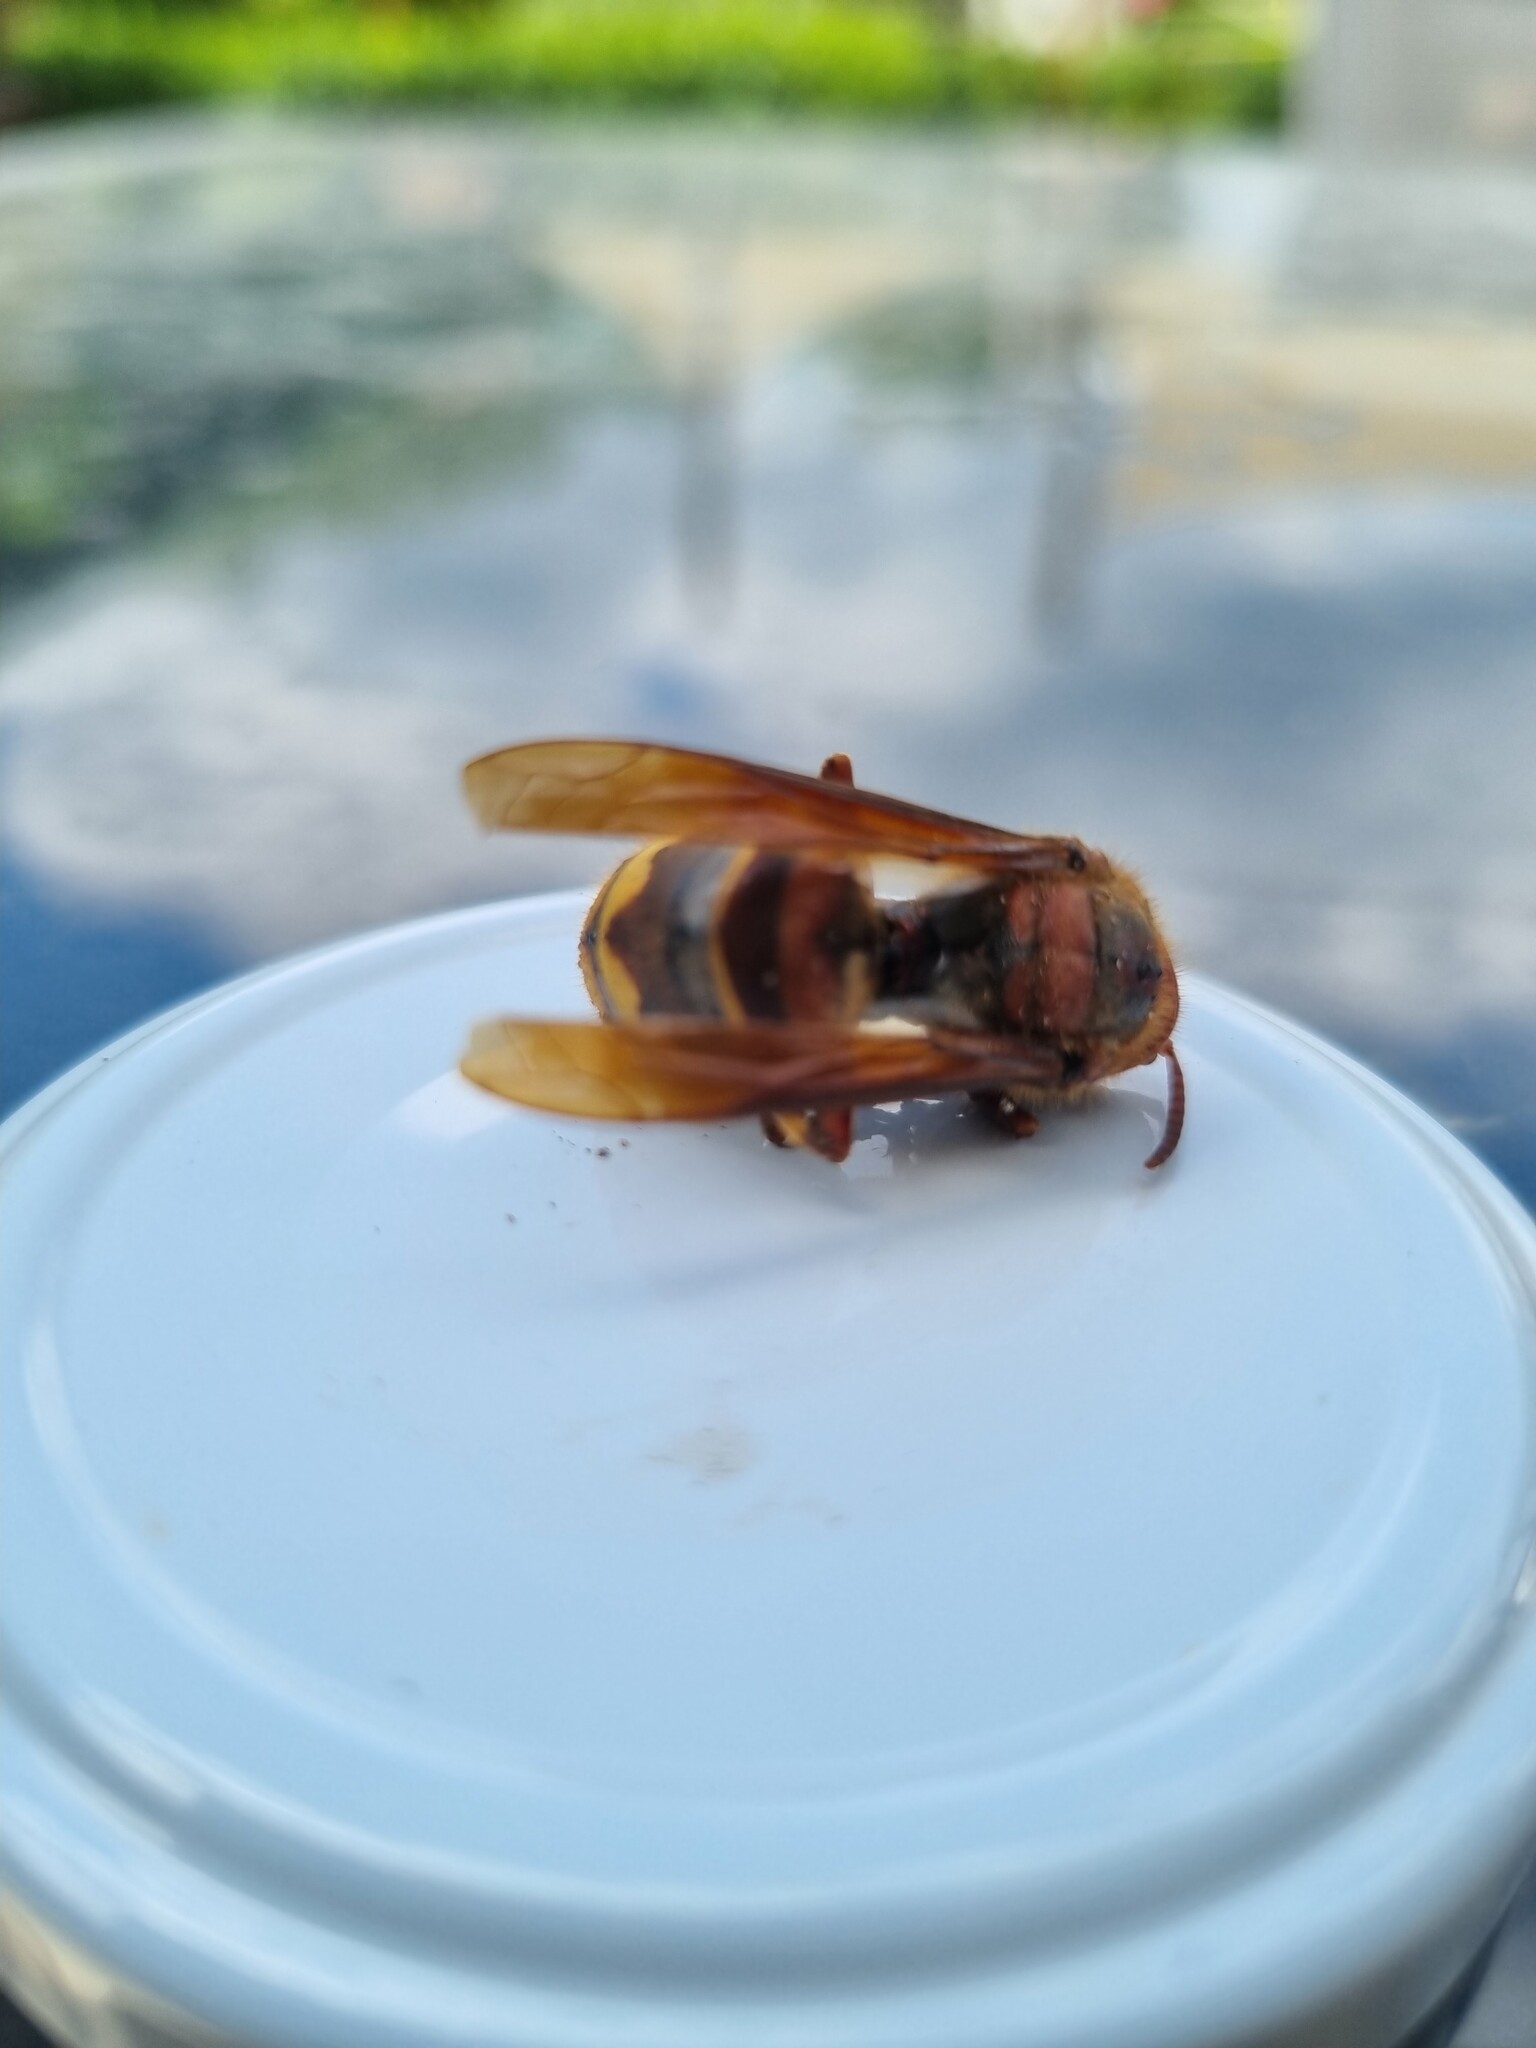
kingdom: Animalia
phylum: Arthropoda
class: Insecta
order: Hymenoptera
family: Vespidae
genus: Vespa
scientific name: Vespa crabro
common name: Hornet
